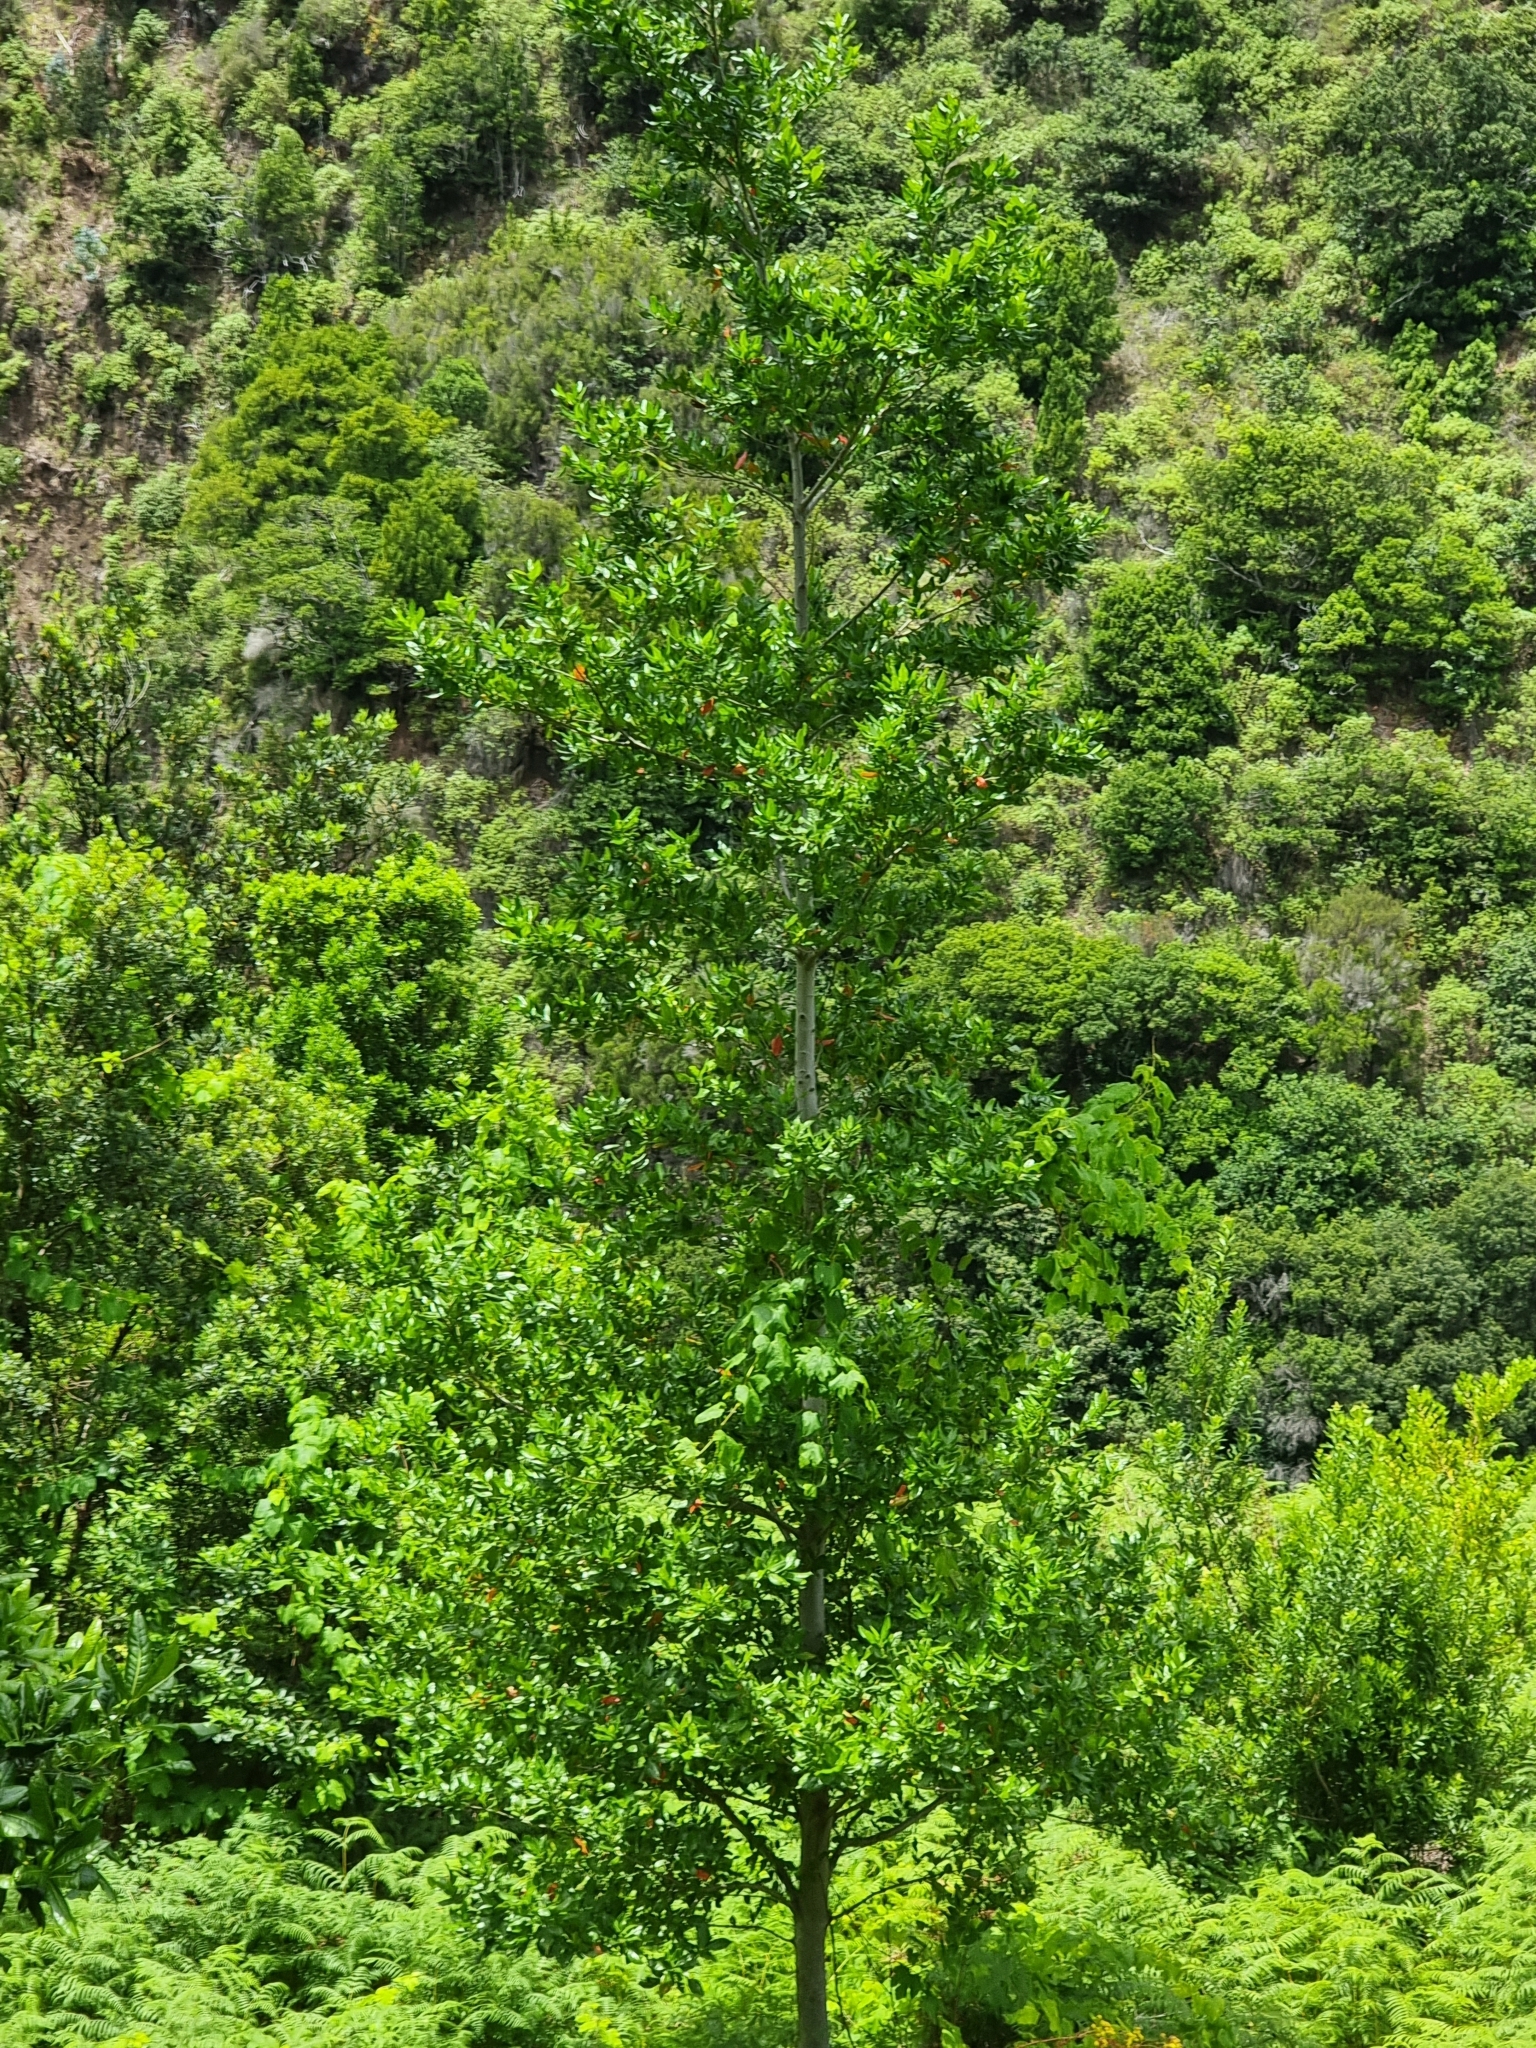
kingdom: Plantae
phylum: Tracheophyta
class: Magnoliopsida
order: Laurales
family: Lauraceae
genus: Mespilodaphne
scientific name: Mespilodaphne foetens
